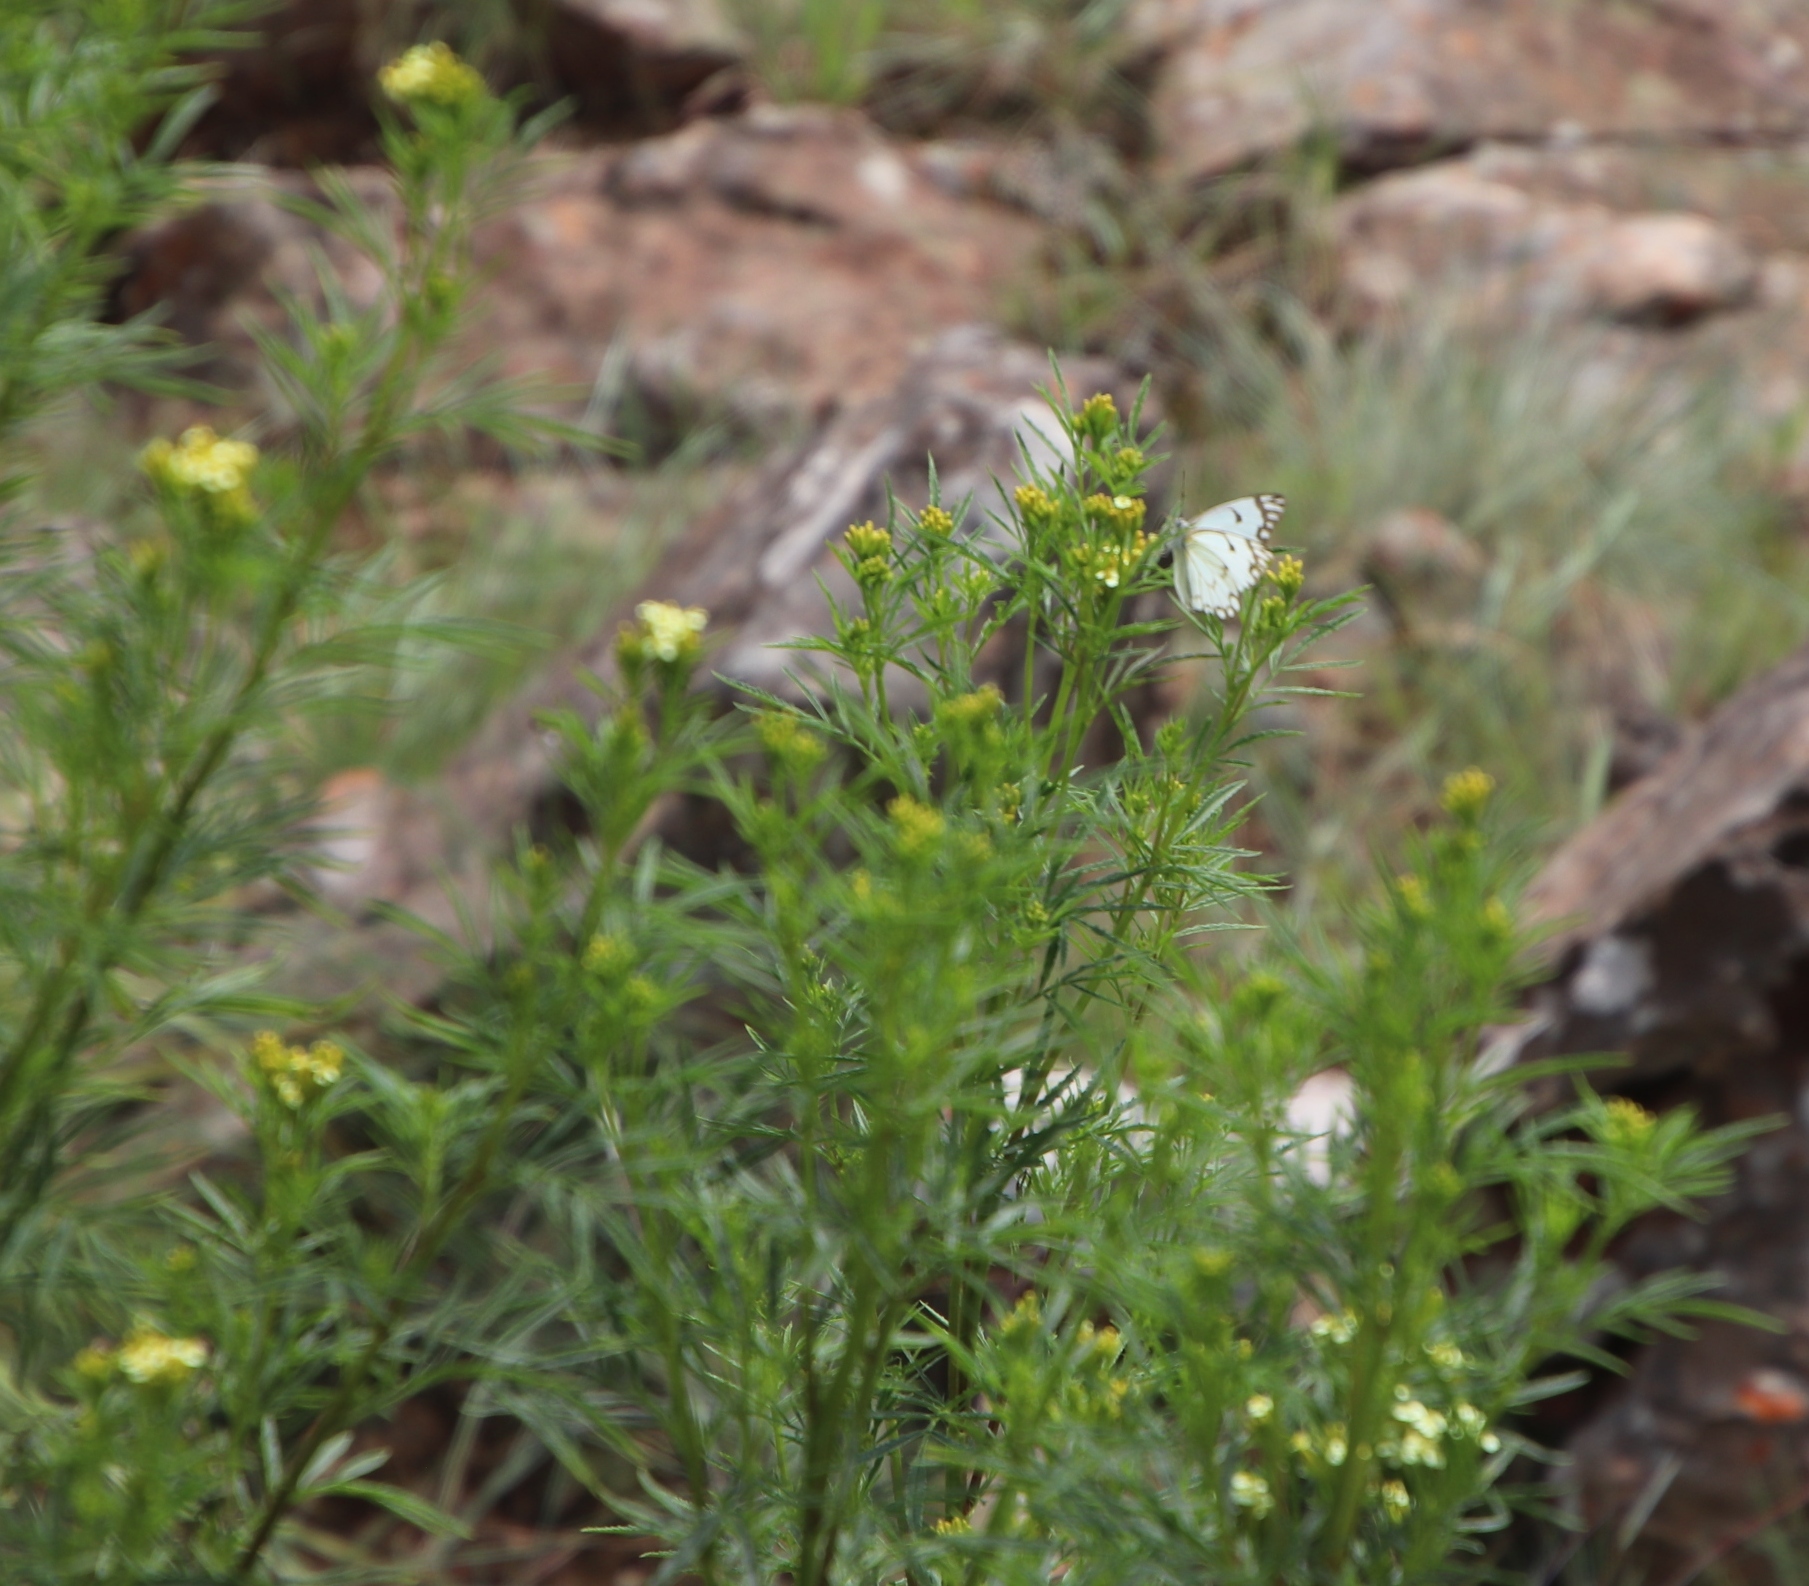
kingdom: Plantae
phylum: Tracheophyta
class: Magnoliopsida
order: Asterales
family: Asteraceae
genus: Tagetes
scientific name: Tagetes minuta
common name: Muster john henry
